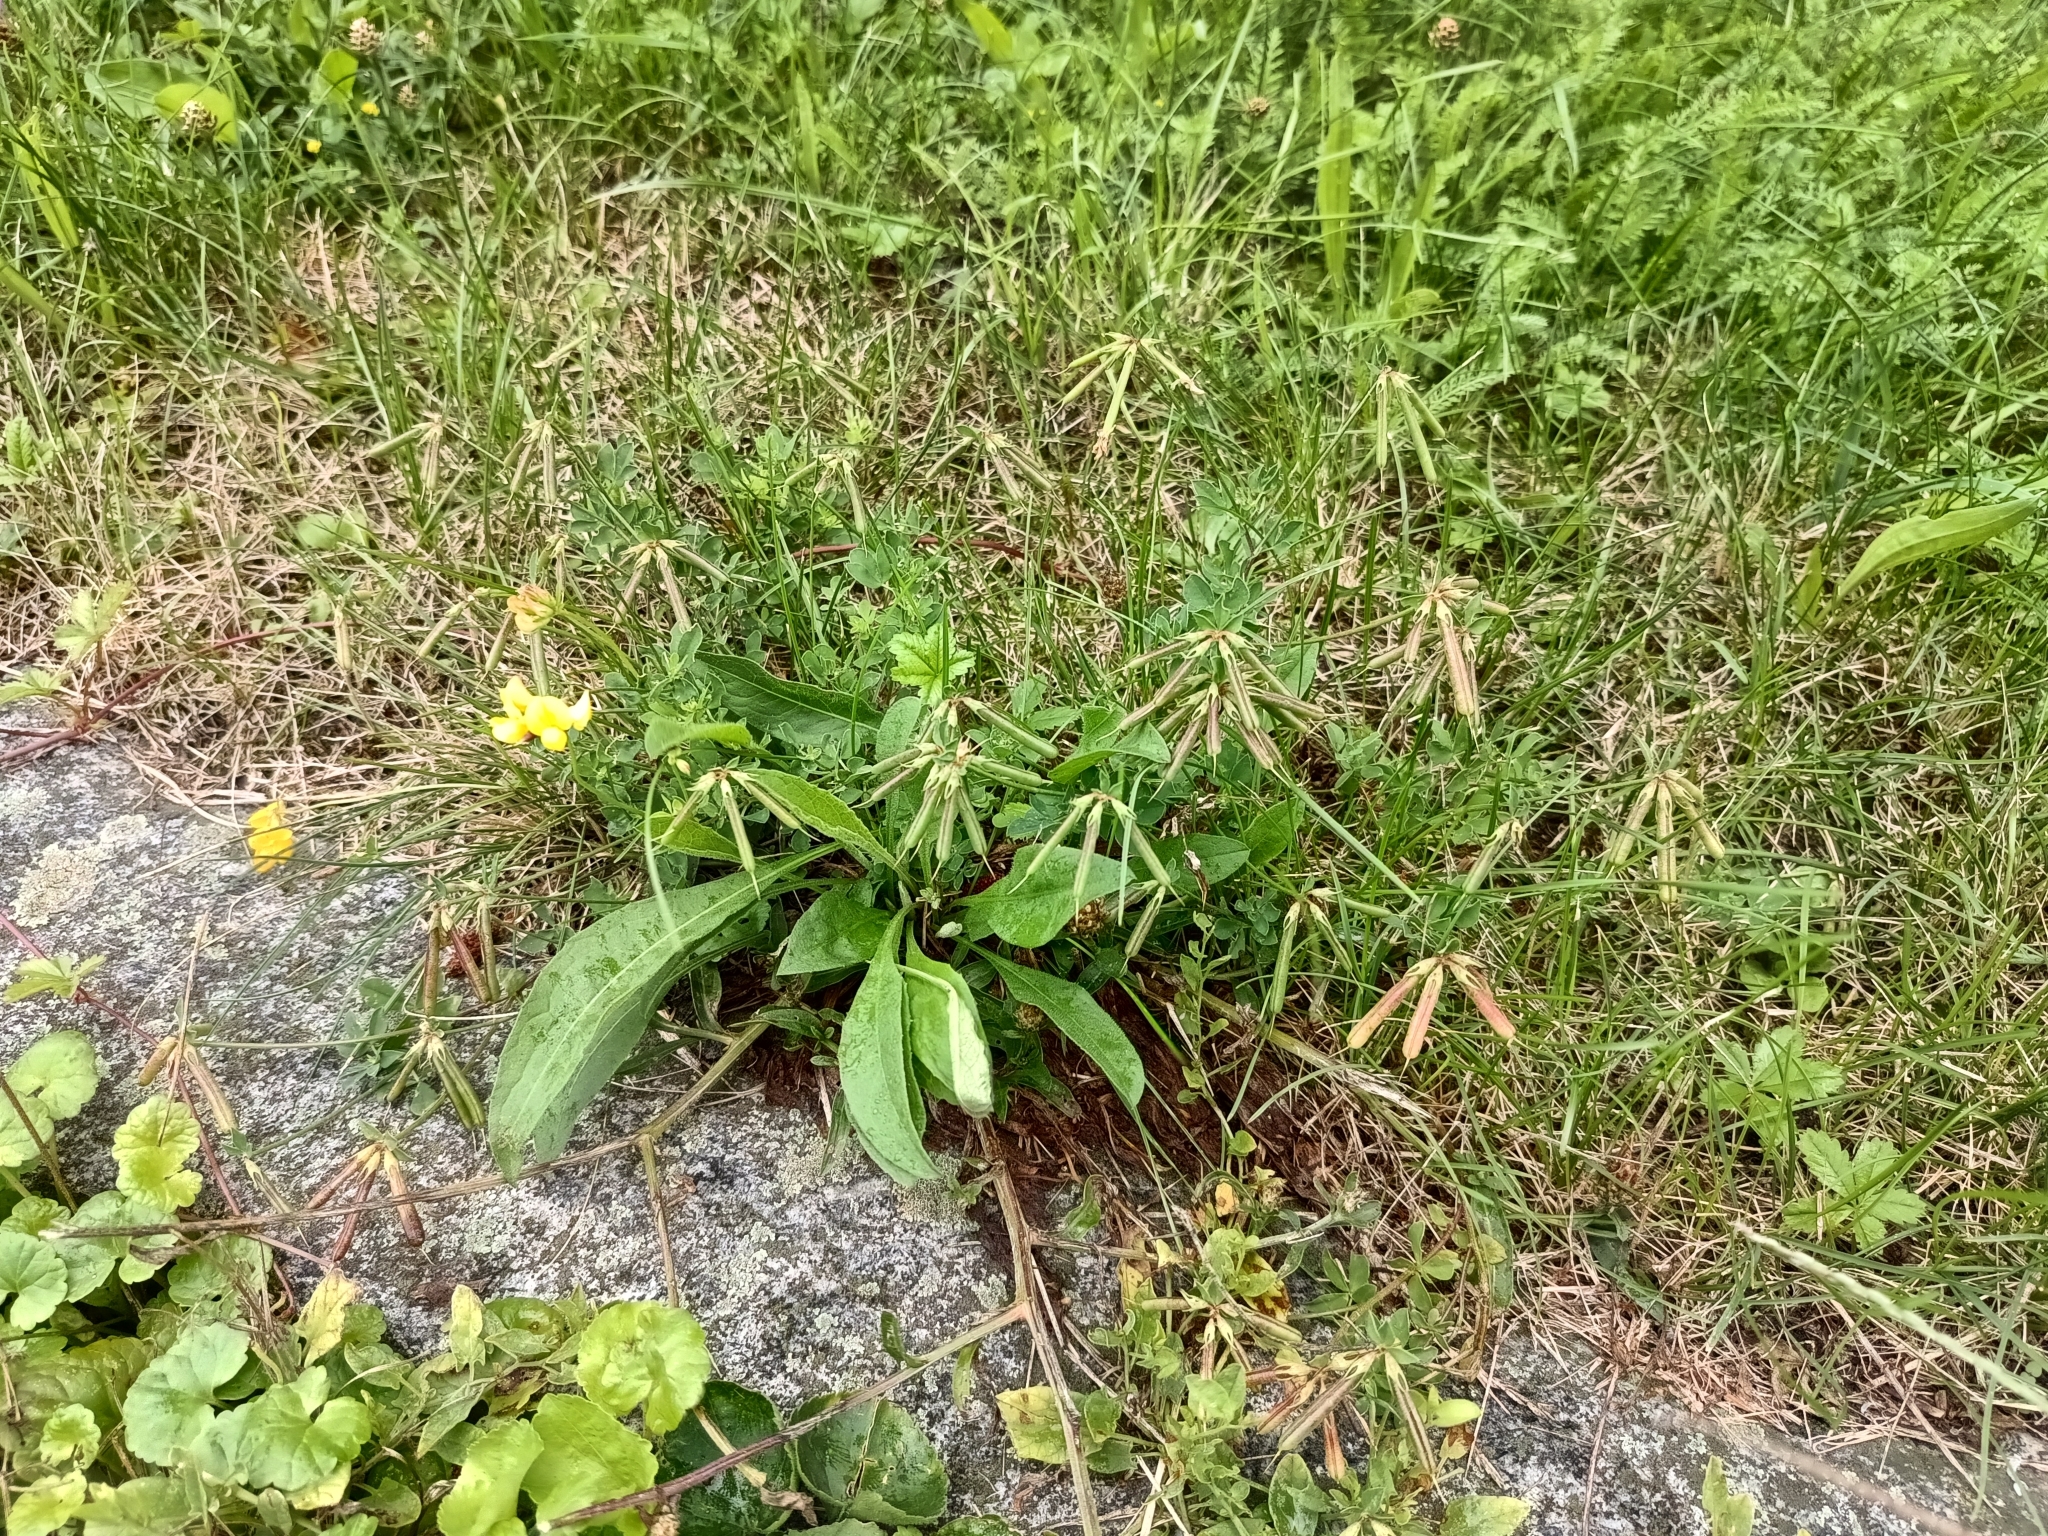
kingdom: Plantae
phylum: Tracheophyta
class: Magnoliopsida
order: Fabales
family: Fabaceae
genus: Lotus
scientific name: Lotus corniculatus
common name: Common bird's-foot-trefoil
